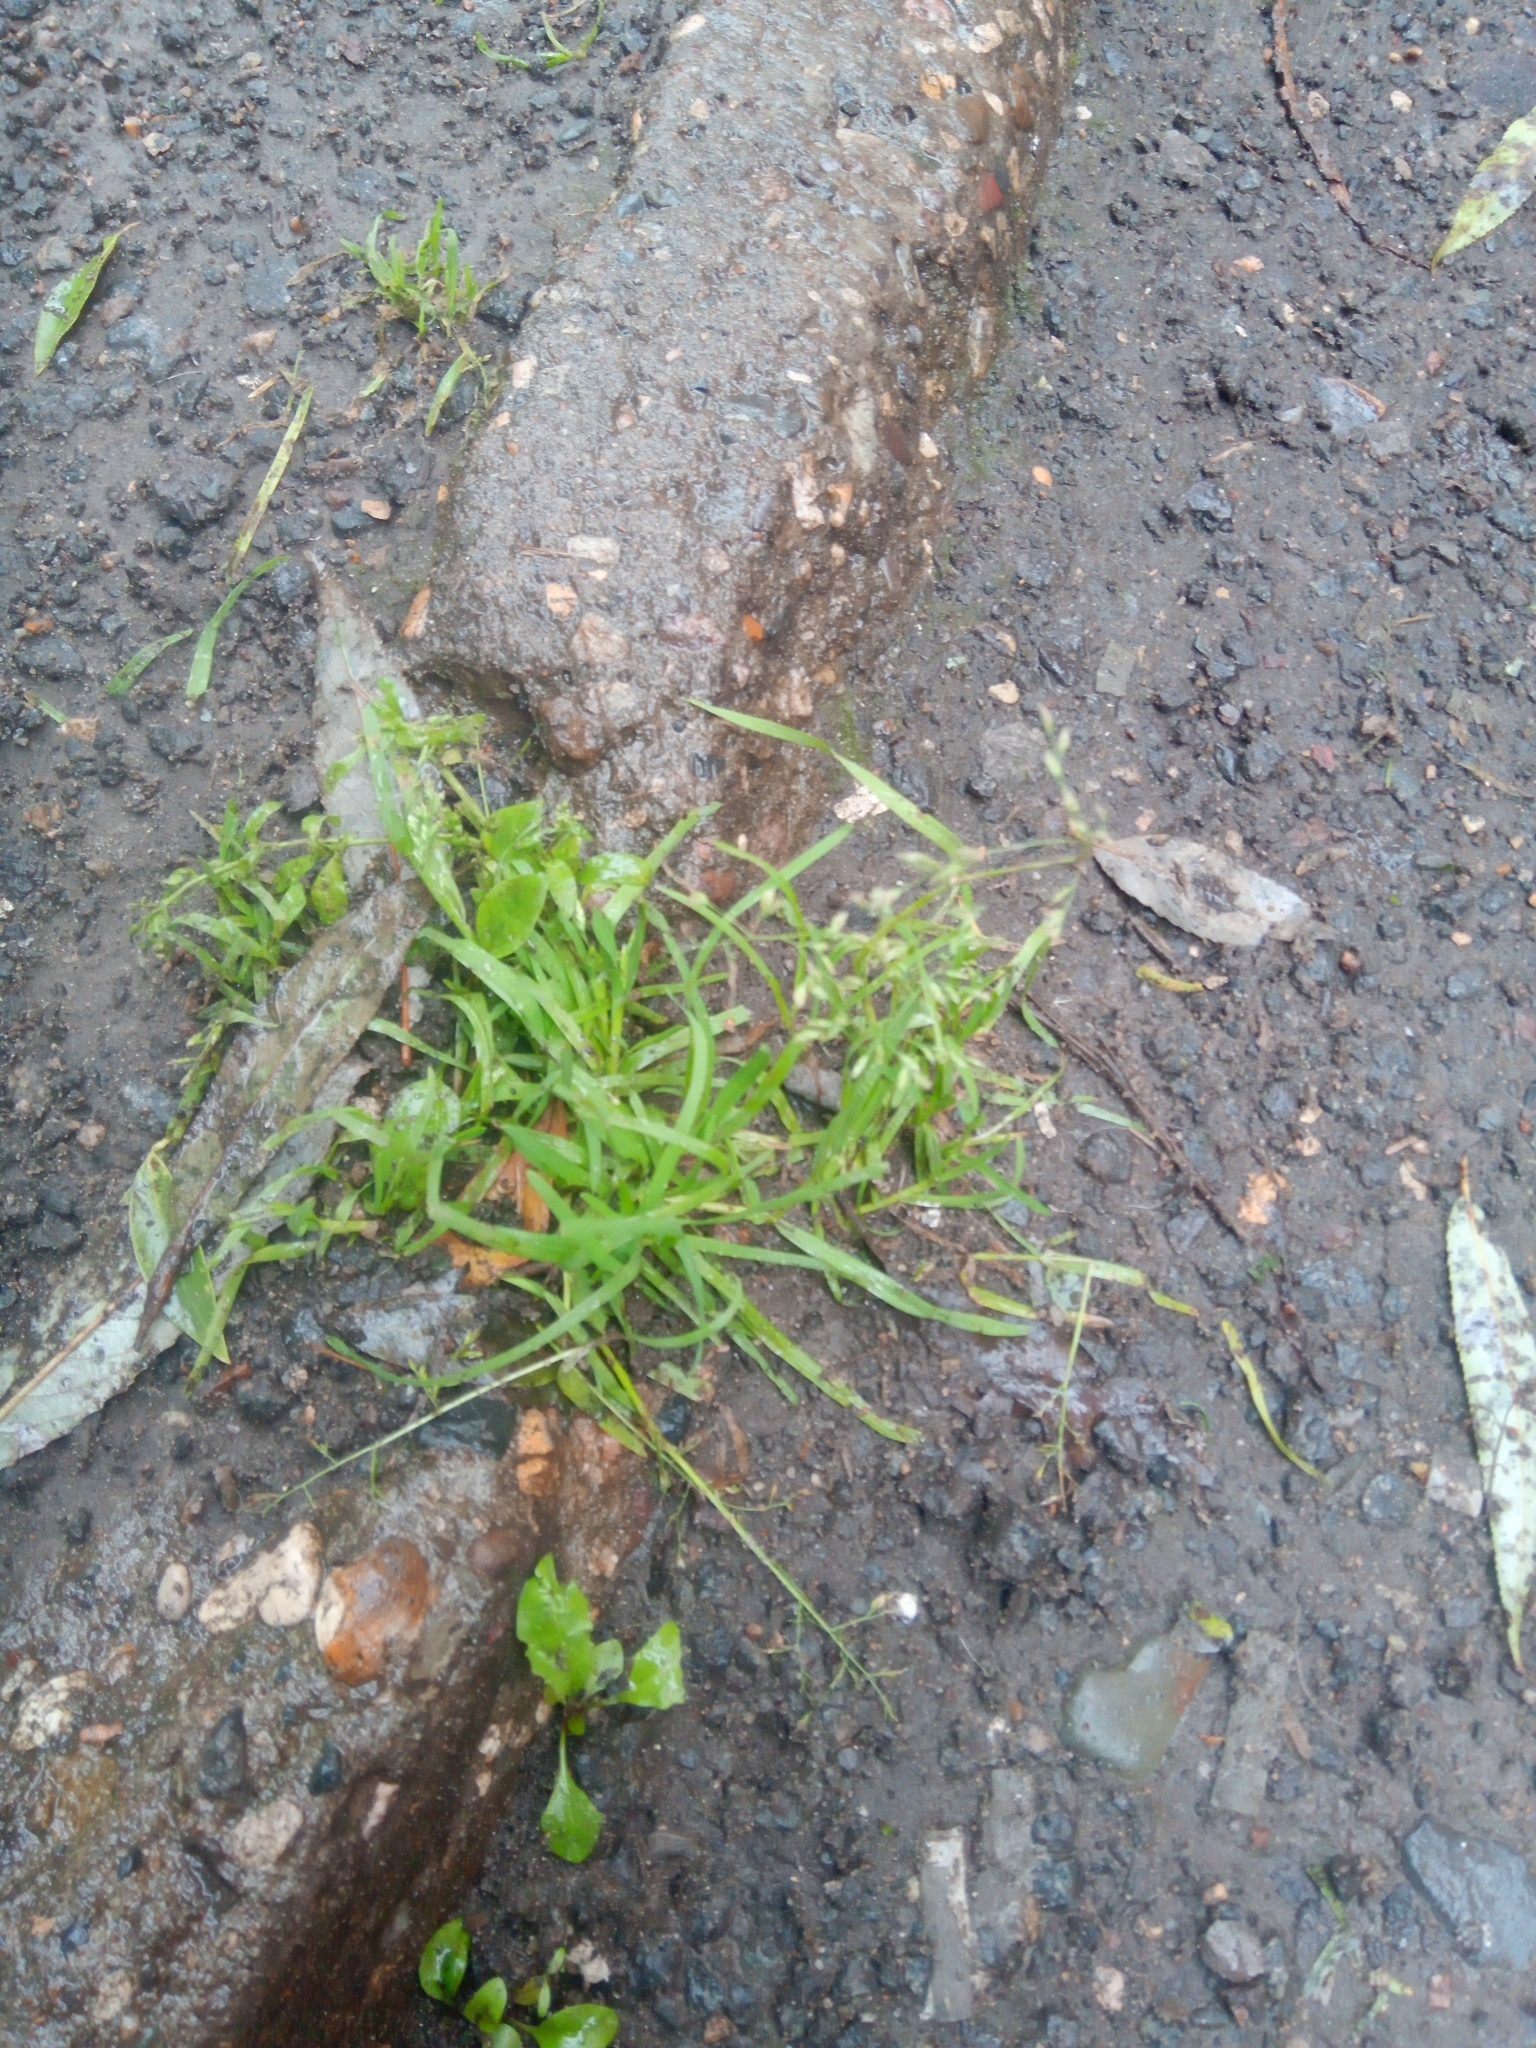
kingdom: Plantae
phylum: Tracheophyta
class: Liliopsida
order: Poales
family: Poaceae
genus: Poa
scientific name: Poa annua
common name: Annual bluegrass
